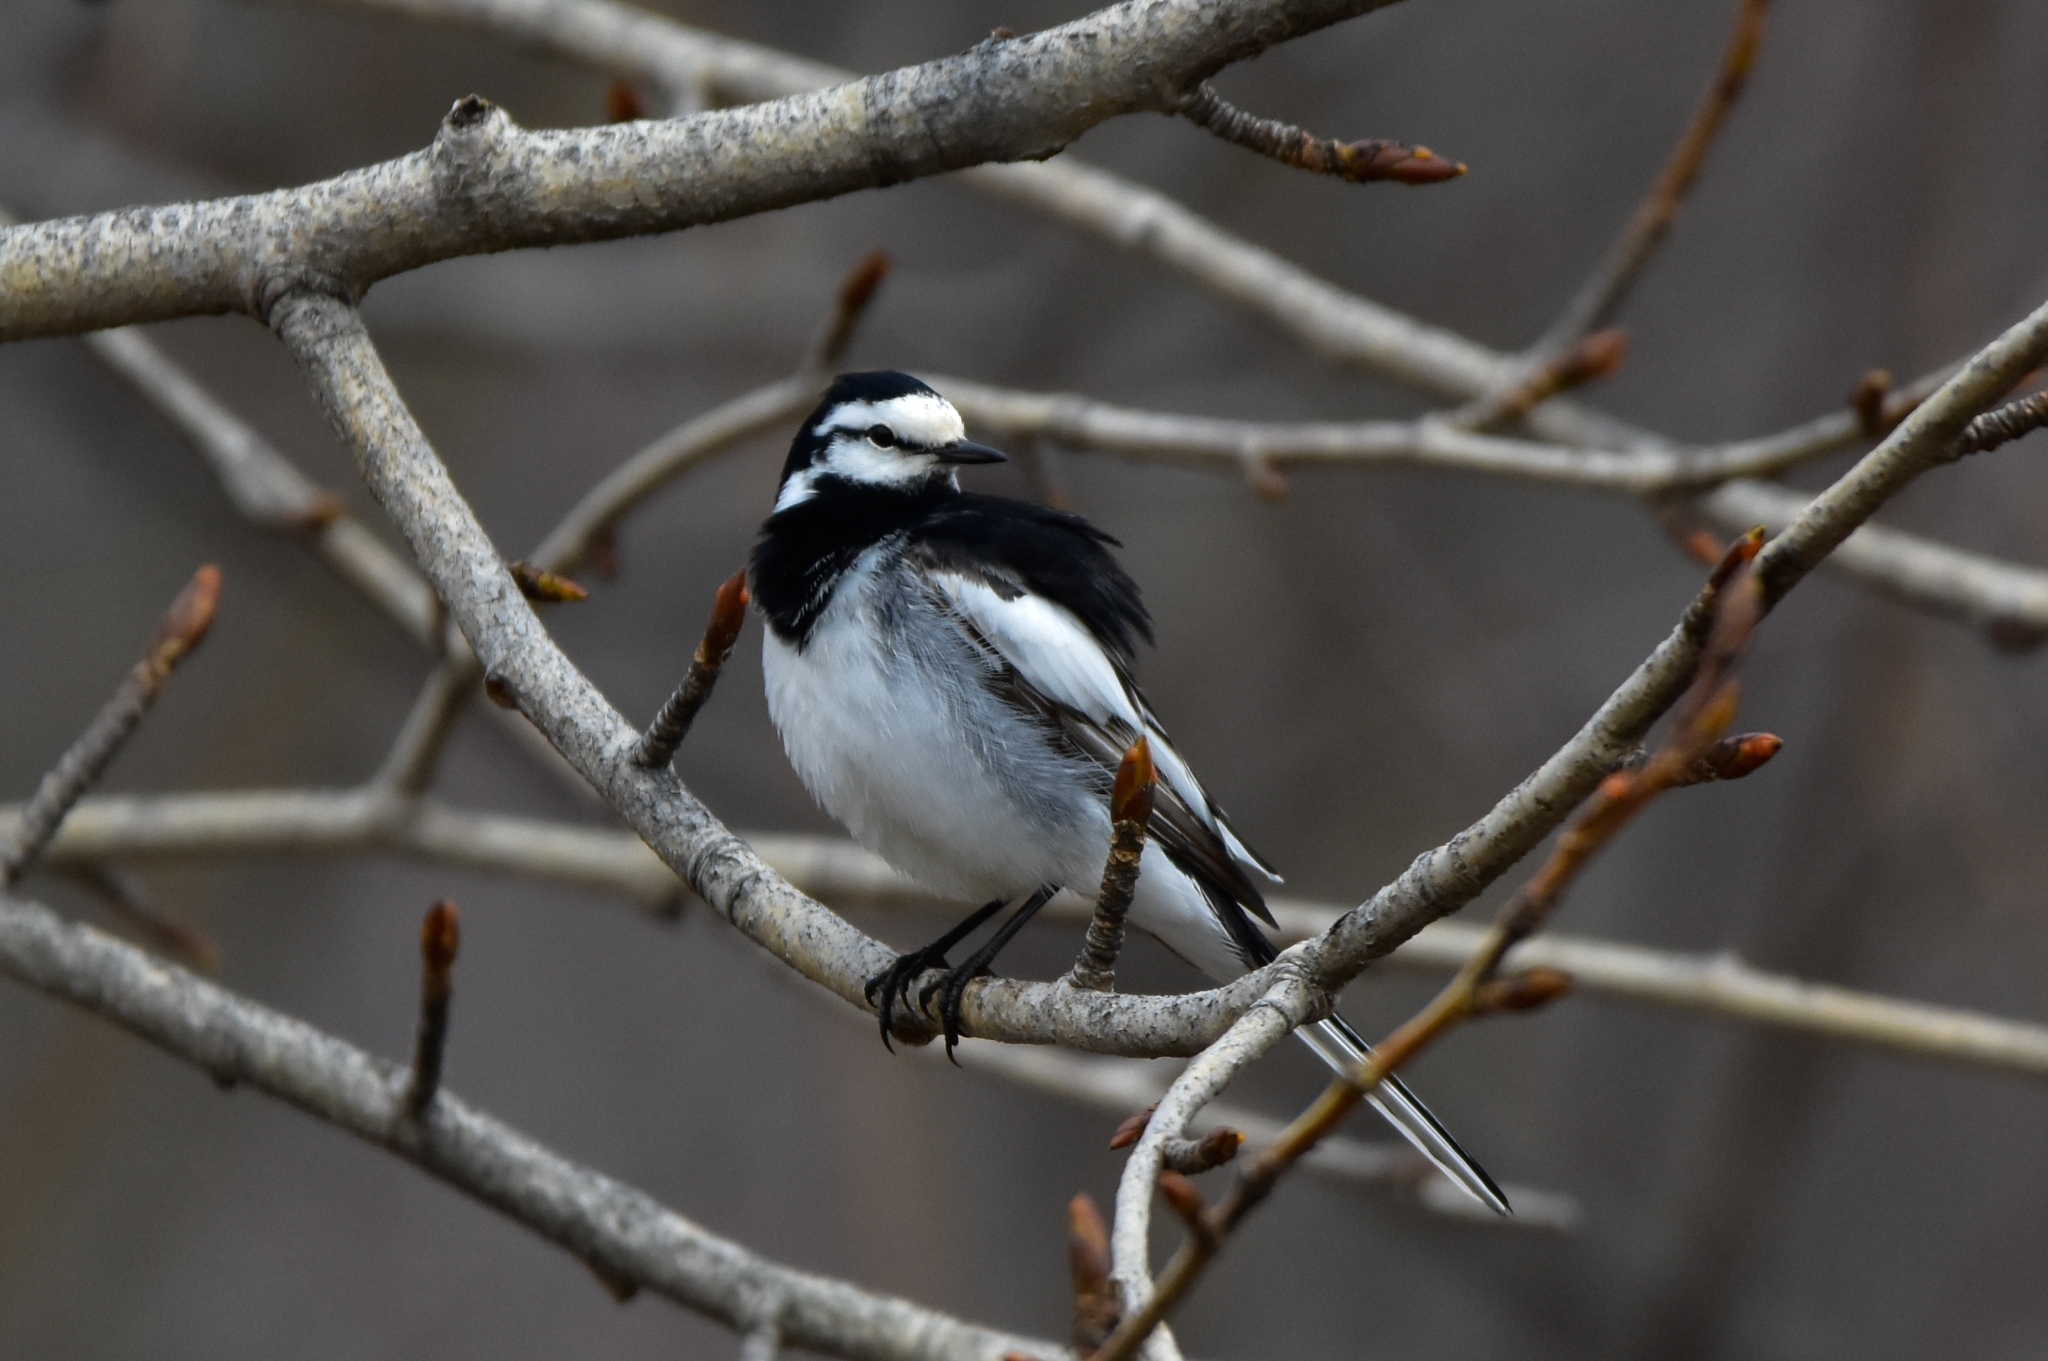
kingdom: Animalia
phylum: Chordata
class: Aves
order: Passeriformes
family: Motacillidae
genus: Motacilla
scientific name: Motacilla alba
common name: White wagtail
